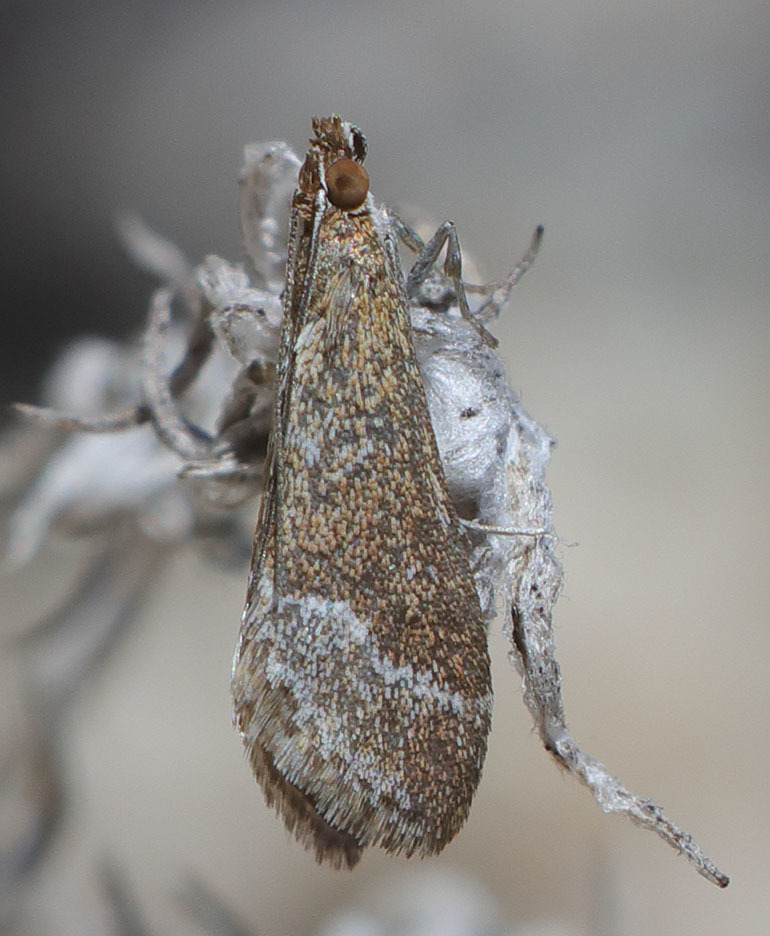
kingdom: Animalia
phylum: Arthropoda
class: Insecta
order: Lepidoptera
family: Crambidae
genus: Pyrausta
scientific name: Pyrausta lethalis
